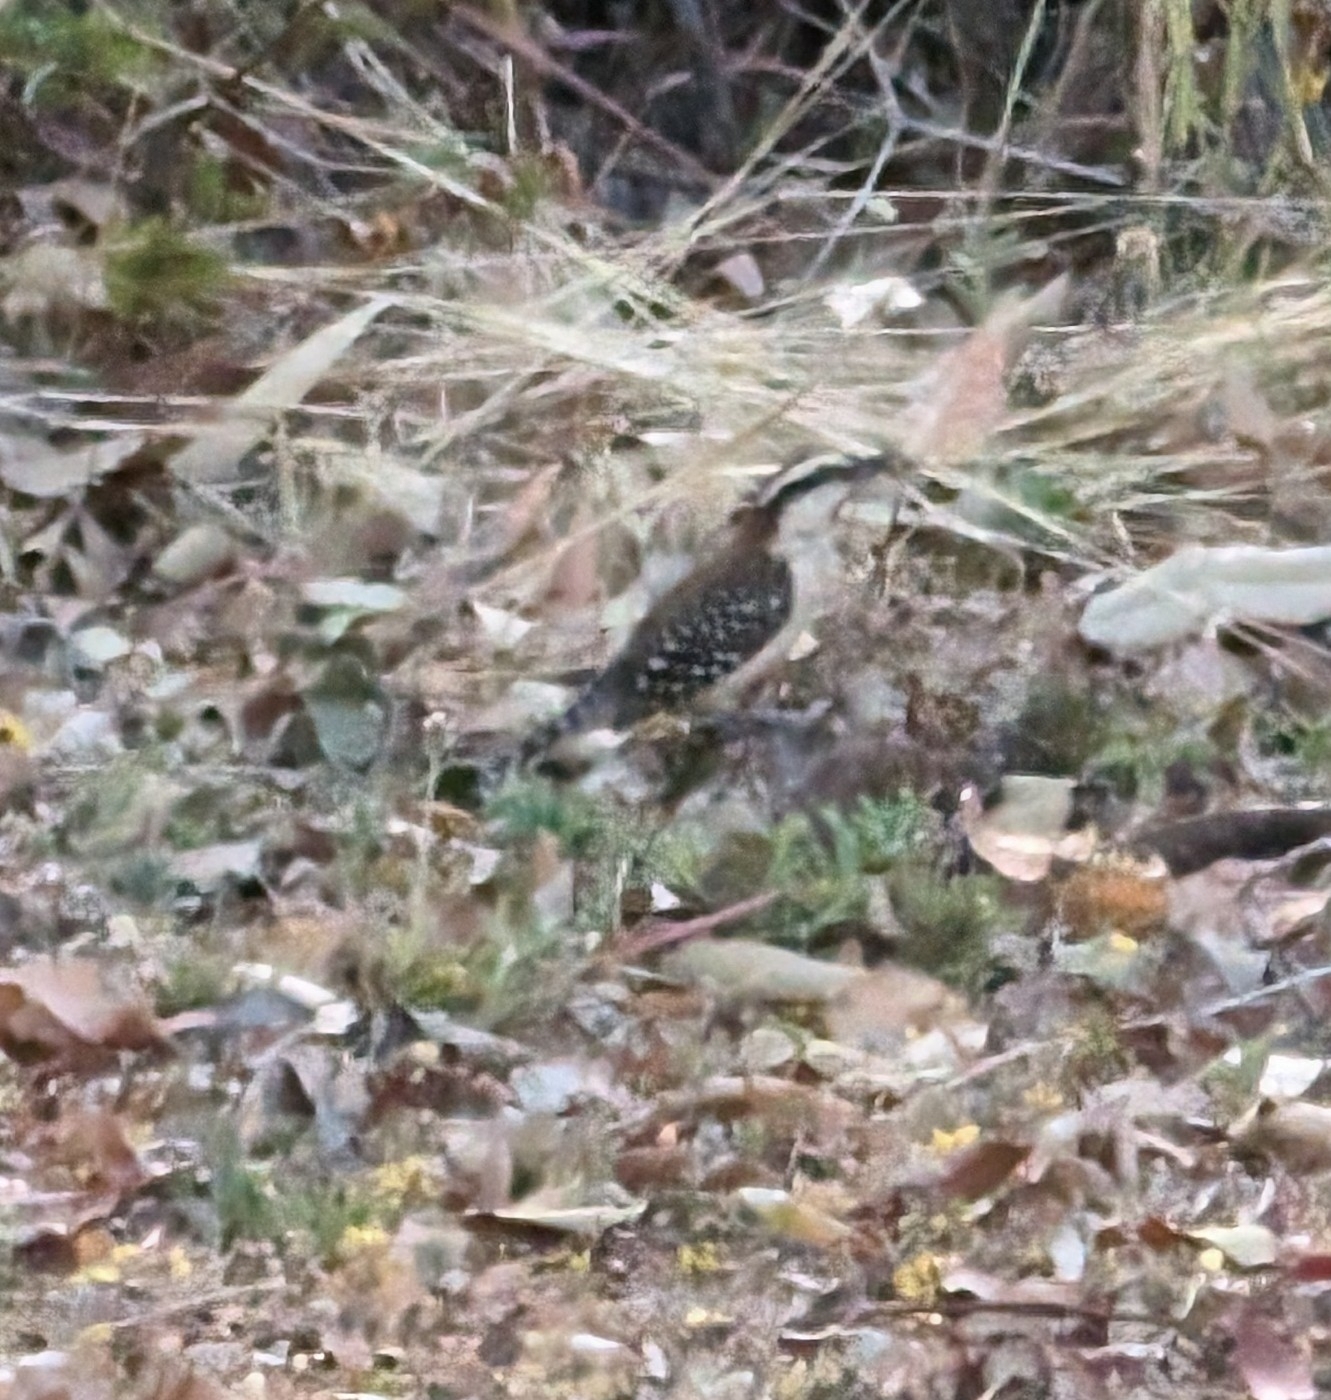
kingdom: Animalia
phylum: Chordata
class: Aves
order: Passeriformes
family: Troglodytidae
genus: Campylorhynchus
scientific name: Campylorhynchus rufinucha
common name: Rufous-naped wren
